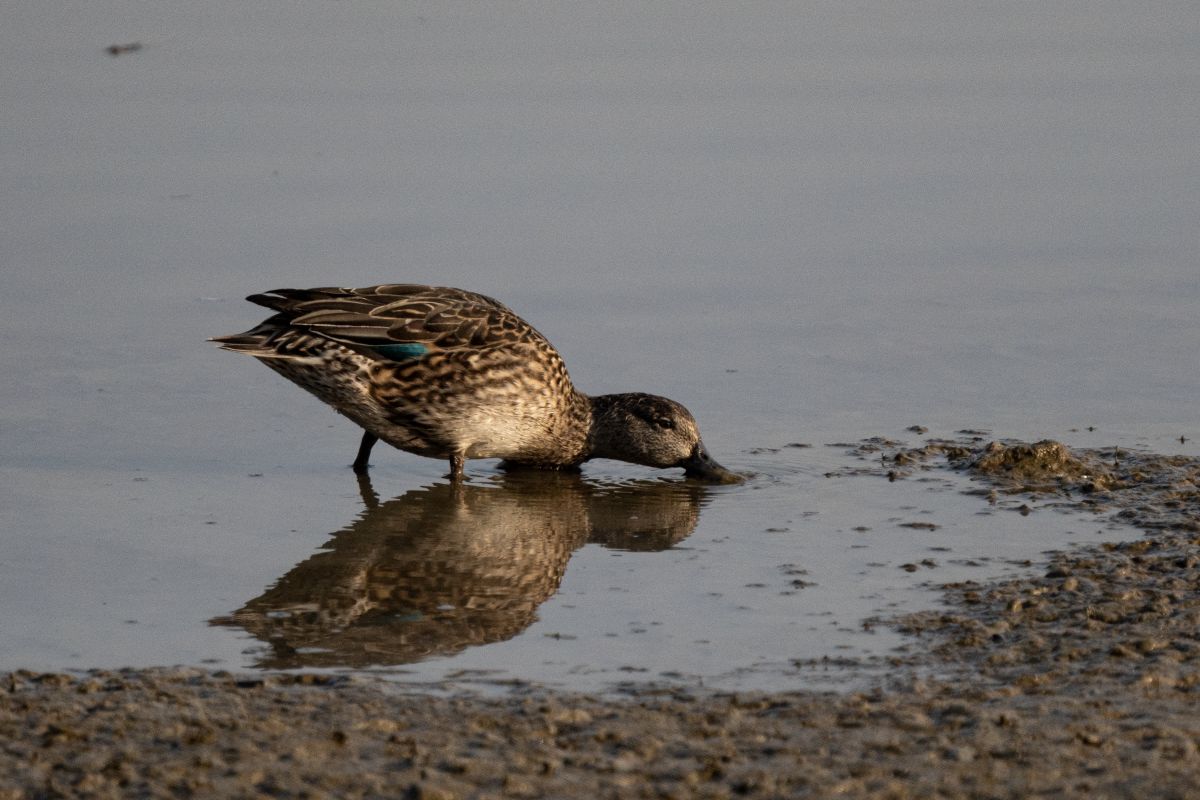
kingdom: Animalia
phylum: Chordata
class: Aves
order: Anseriformes
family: Anatidae
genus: Anas
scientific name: Anas crecca
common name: Eurasian teal
